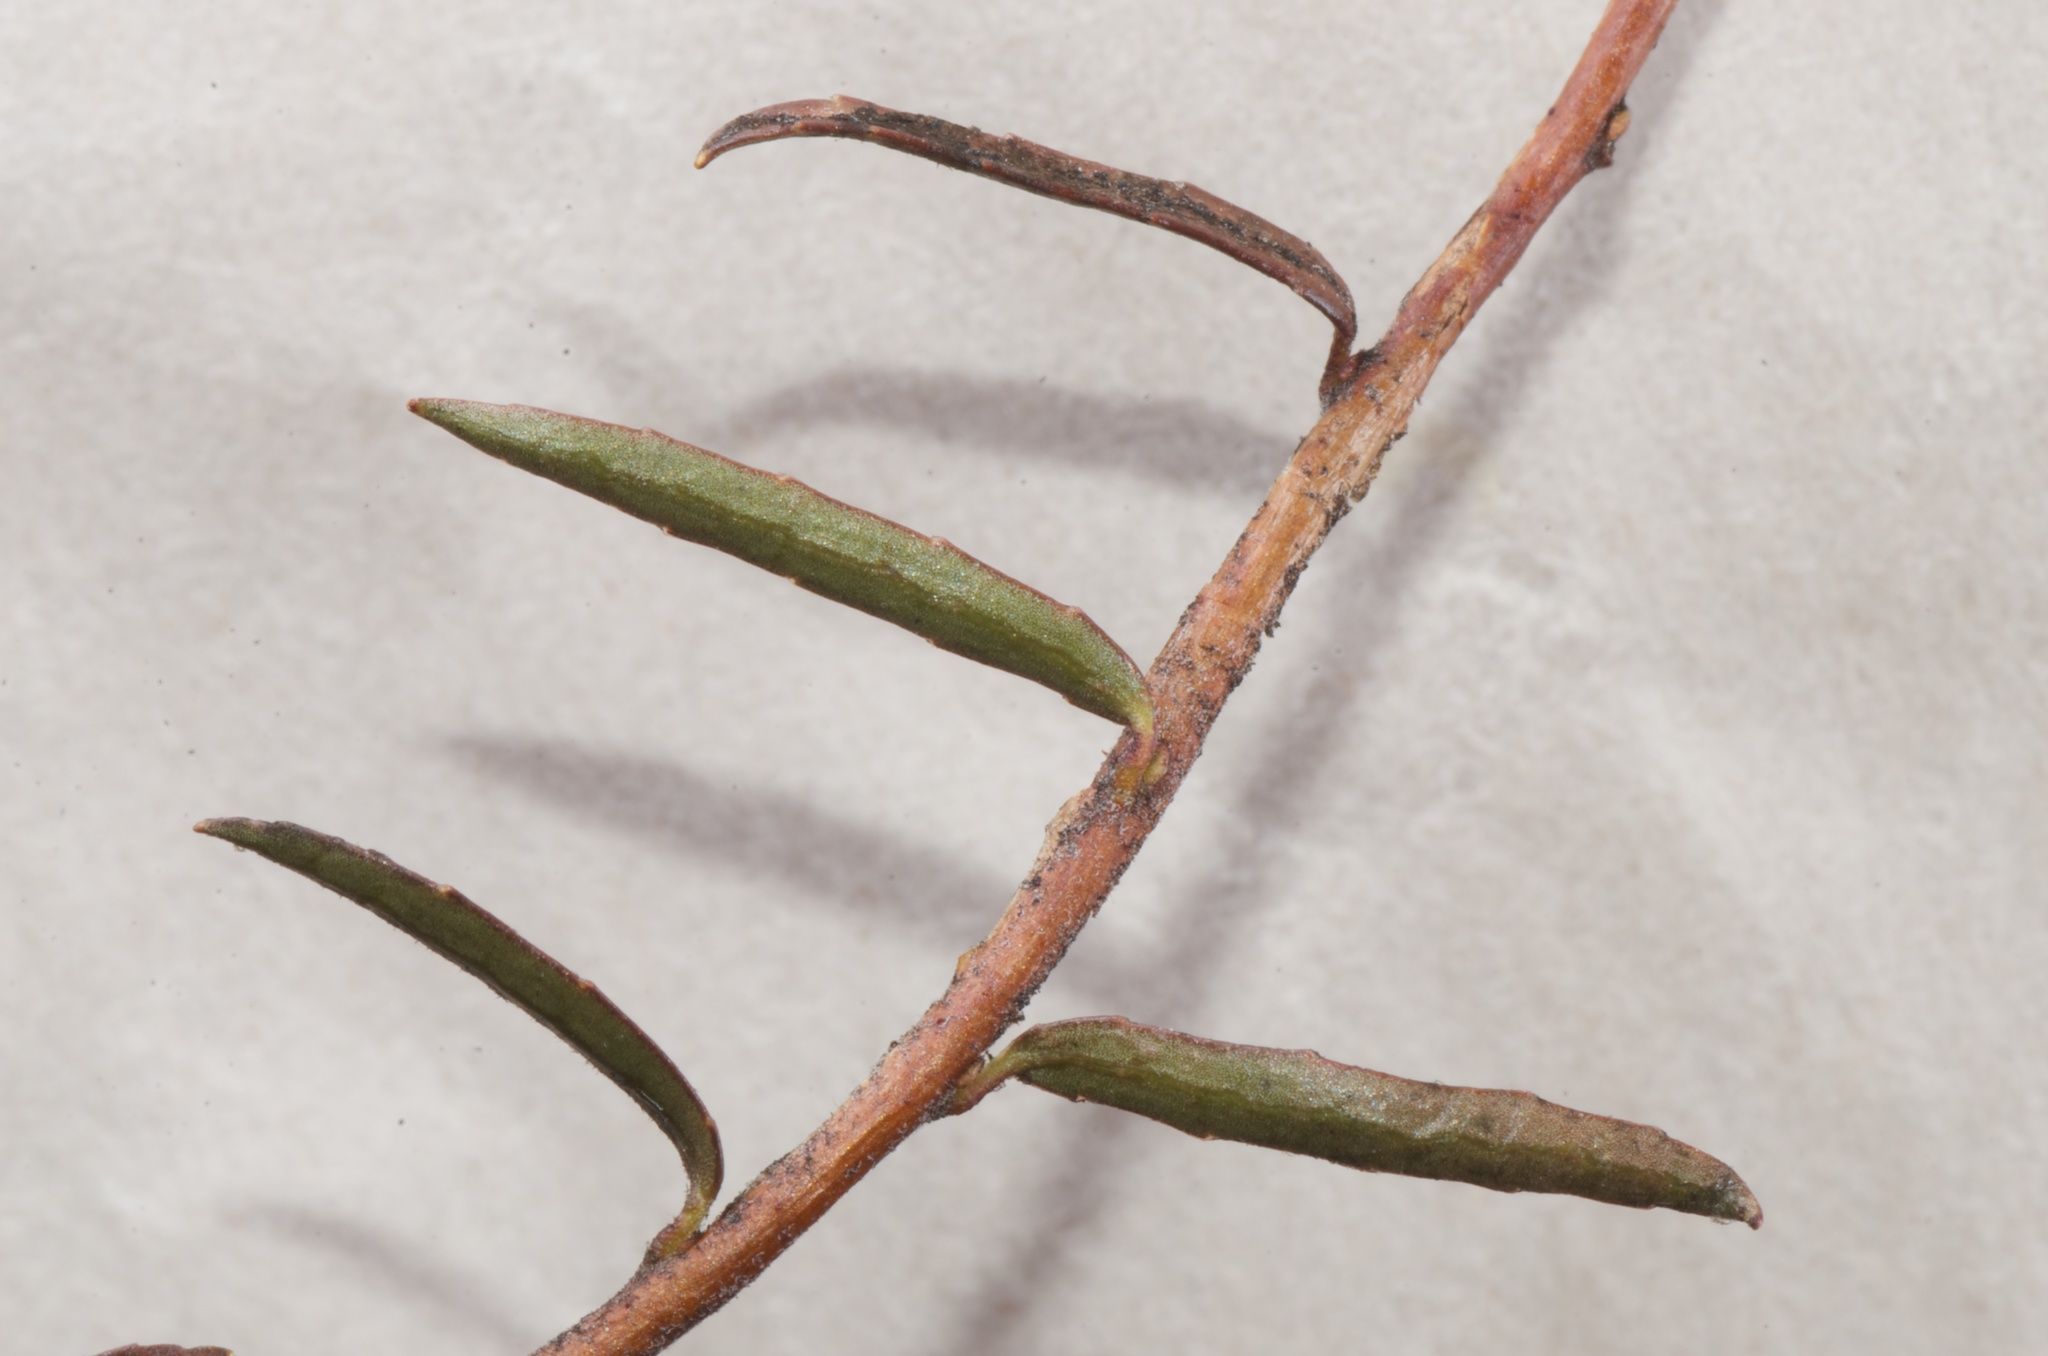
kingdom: Plantae
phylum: Tracheophyta
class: Magnoliopsida
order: Ericales
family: Ericaceae
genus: Gaultheria
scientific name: Gaultheria macrostigma
